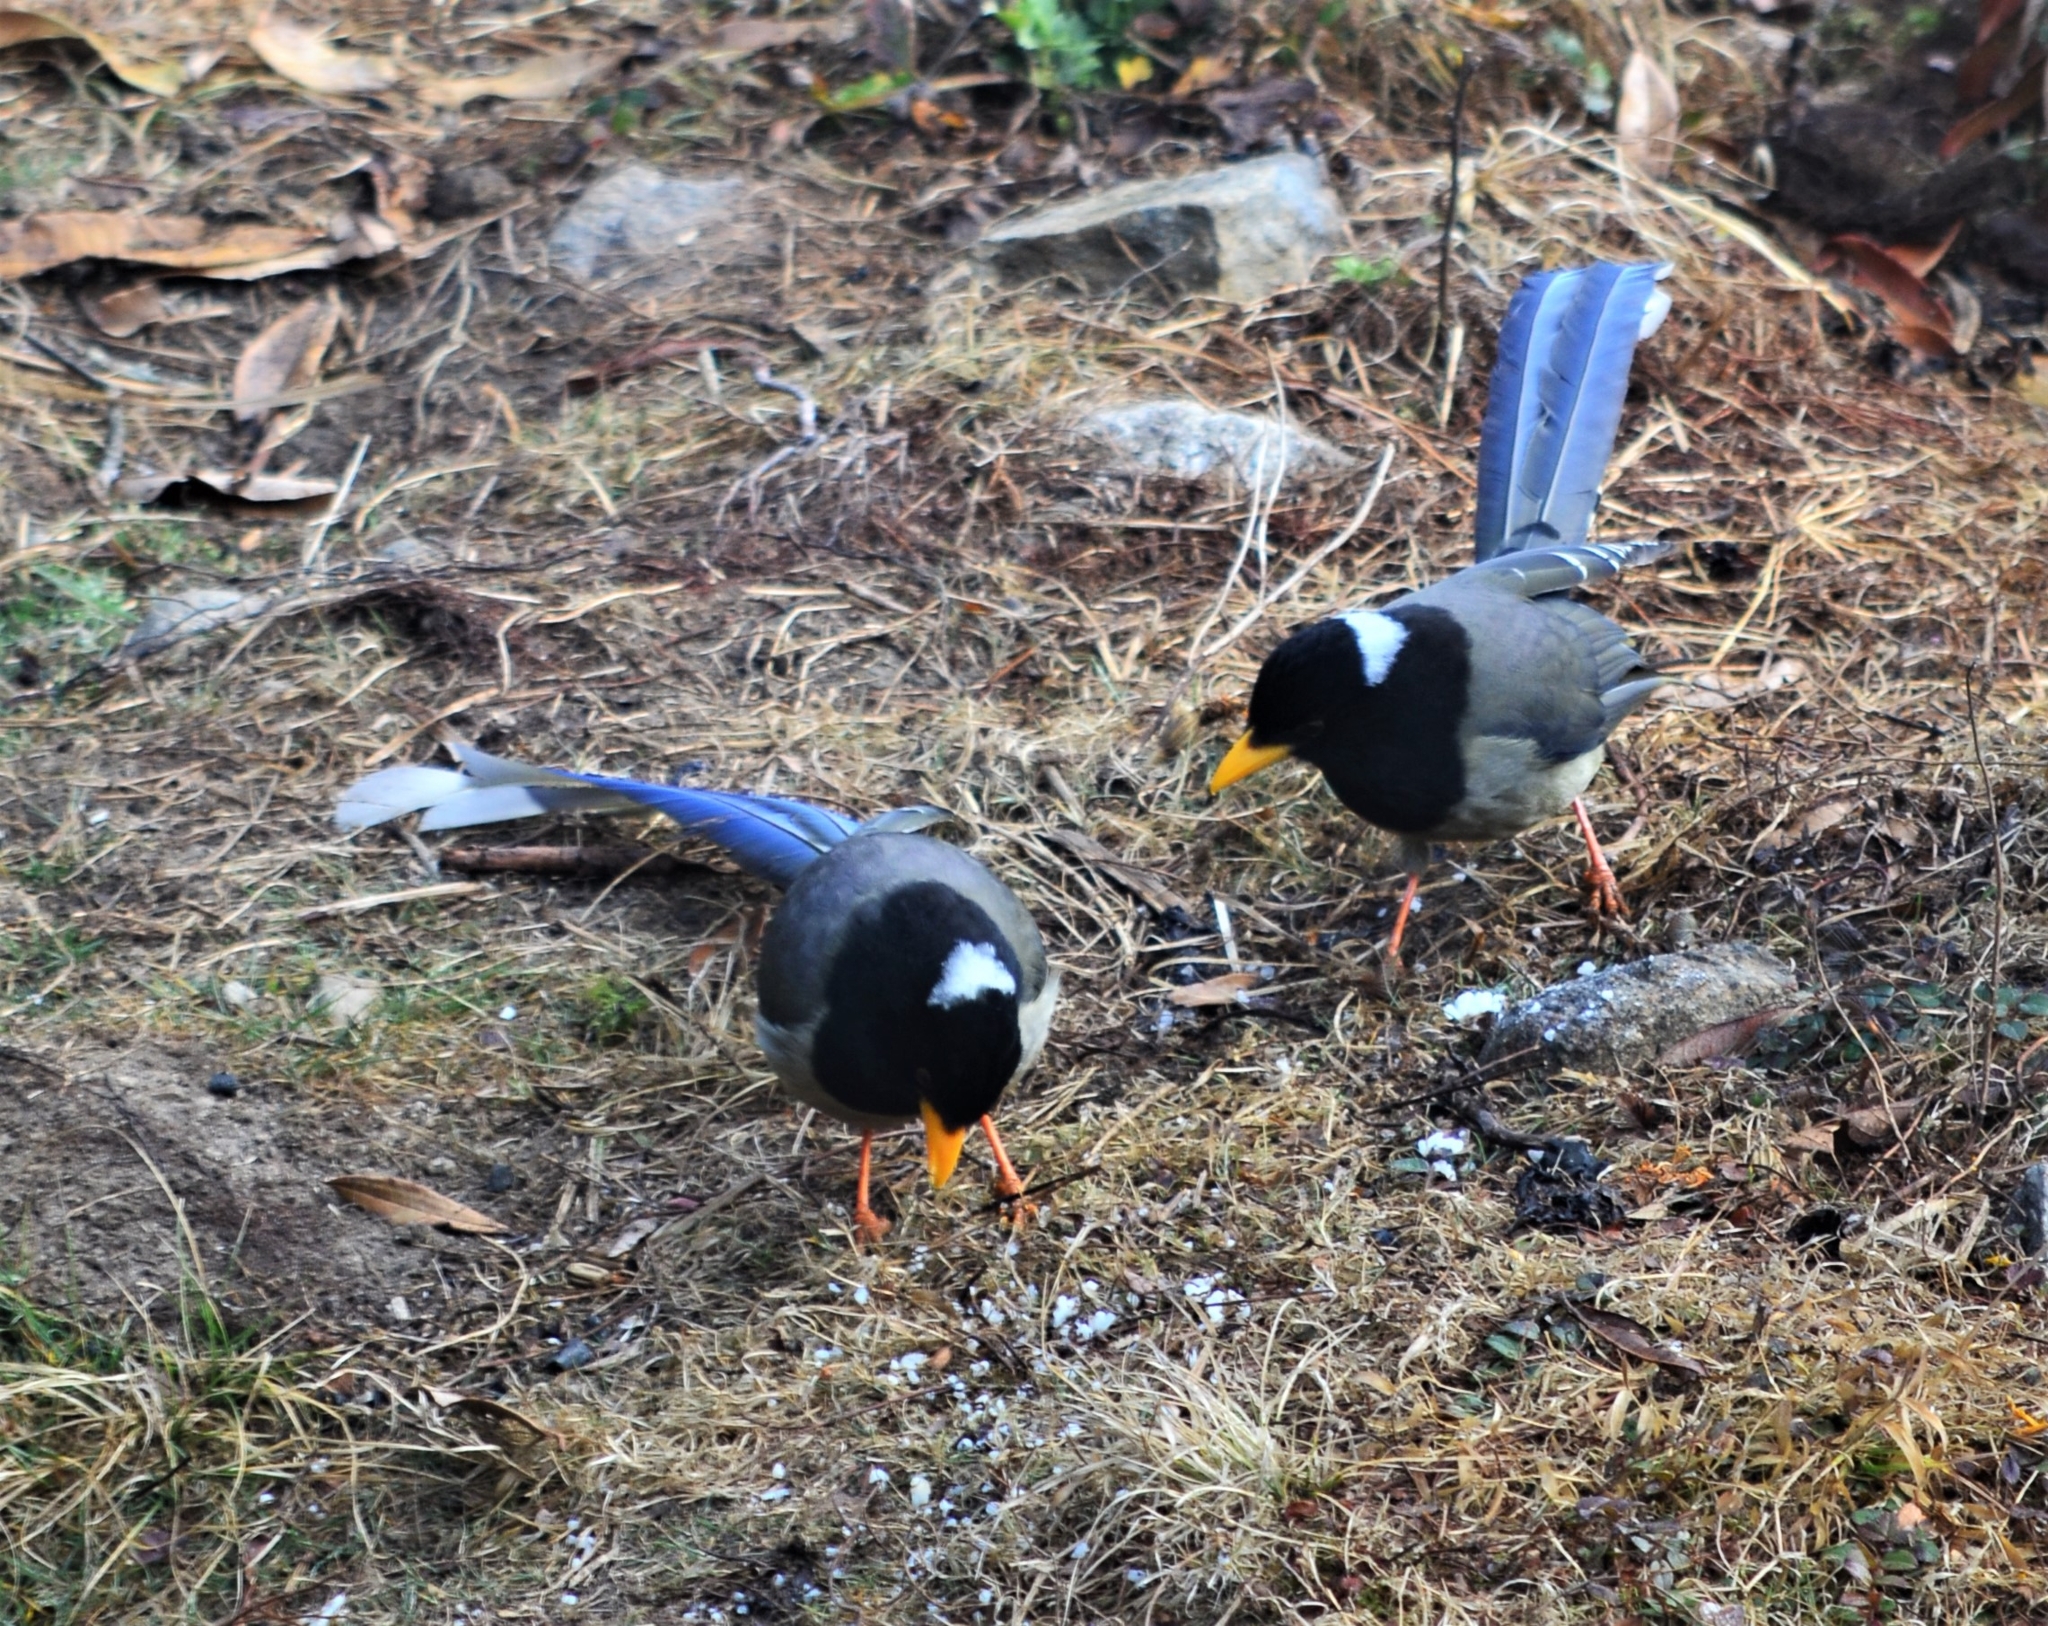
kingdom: Animalia
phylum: Chordata
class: Aves
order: Passeriformes
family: Corvidae
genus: Urocissa
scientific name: Urocissa flavirostris
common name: Yellow-billed blue magpie
